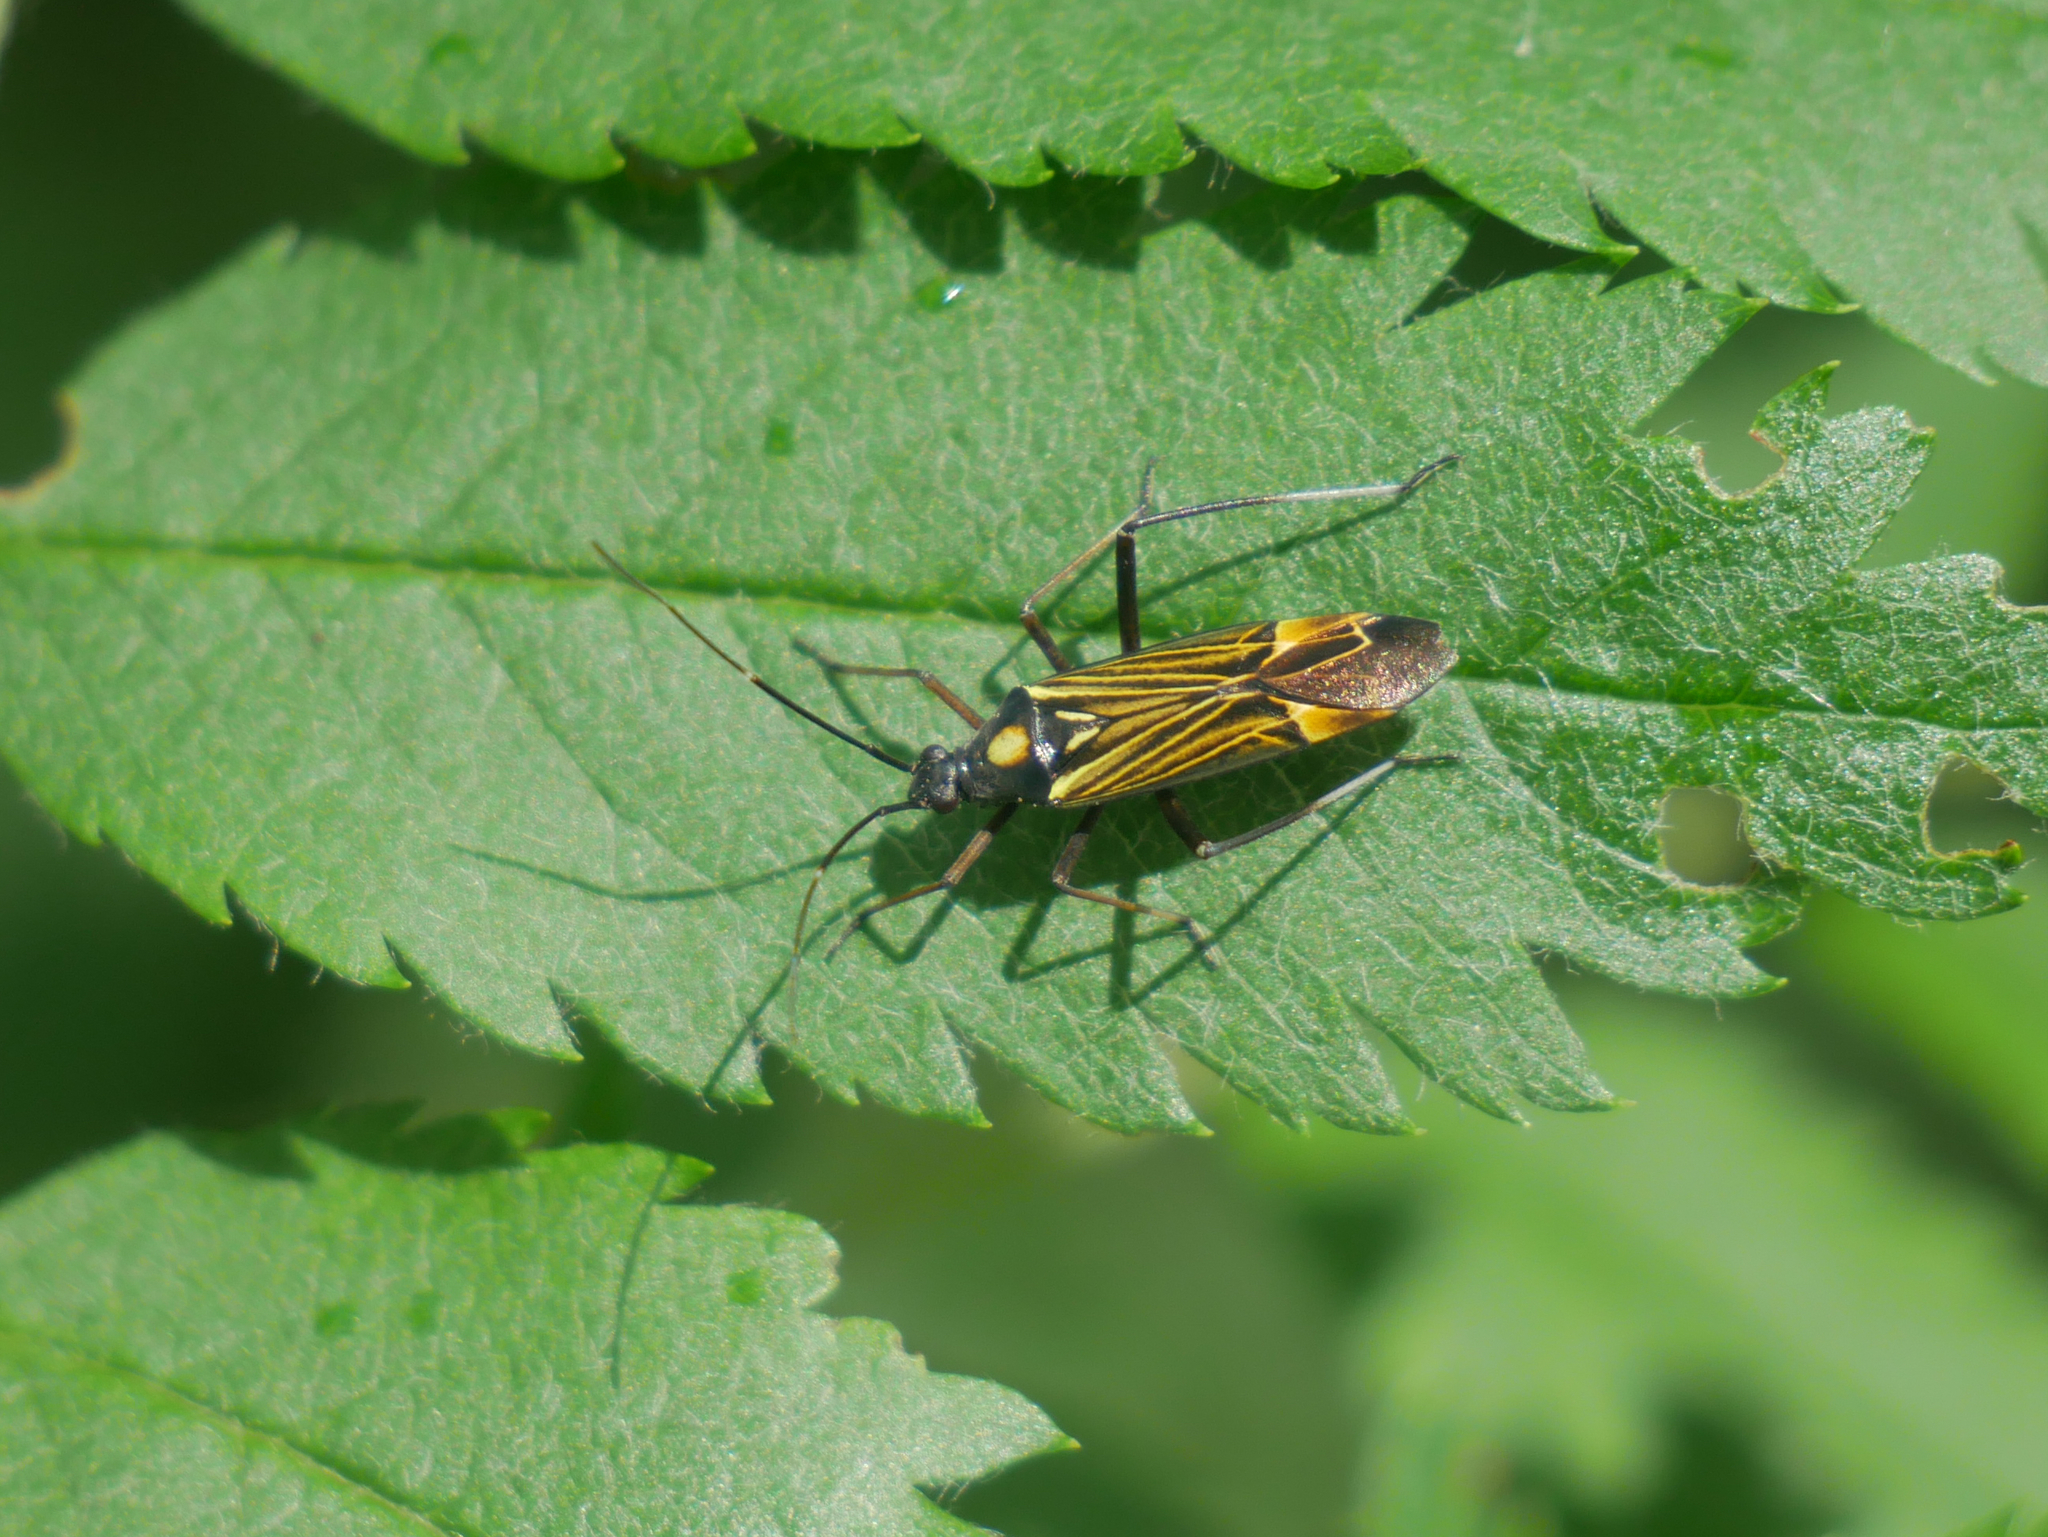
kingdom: Animalia
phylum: Arthropoda
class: Insecta
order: Hemiptera
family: Miridae
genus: Miris
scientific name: Miris striatus
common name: Fine streaked bugkin
